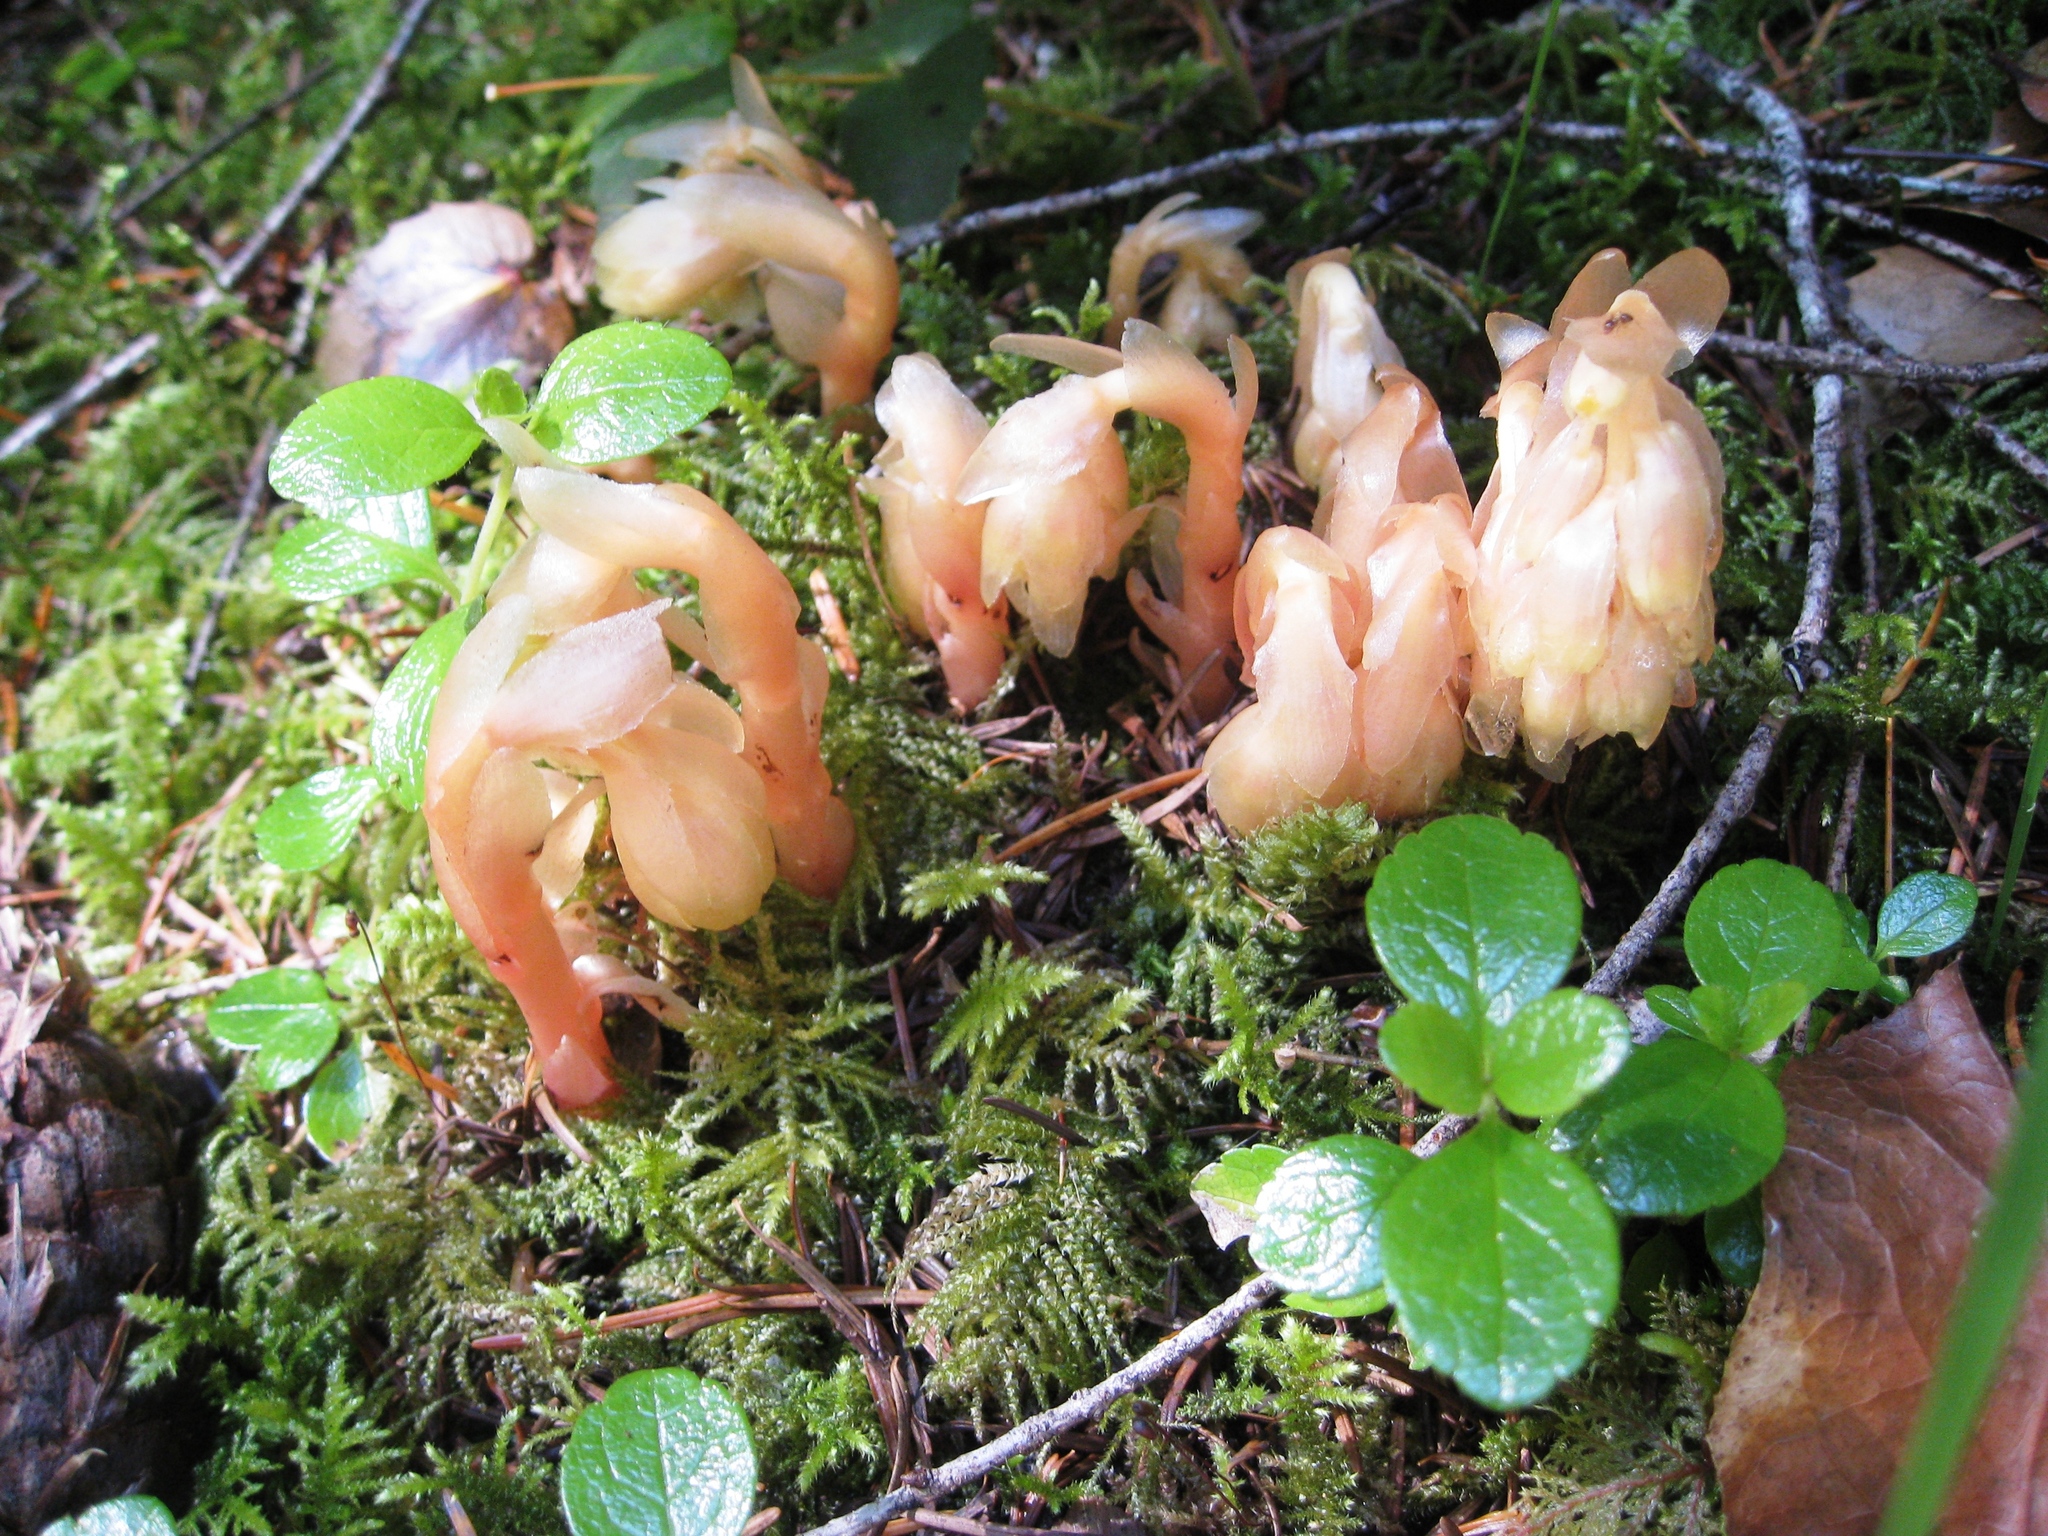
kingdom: Plantae
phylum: Tracheophyta
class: Magnoliopsida
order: Ericales
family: Ericaceae
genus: Hypopitys
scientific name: Hypopitys monotropa
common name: Yellow bird's-nest
